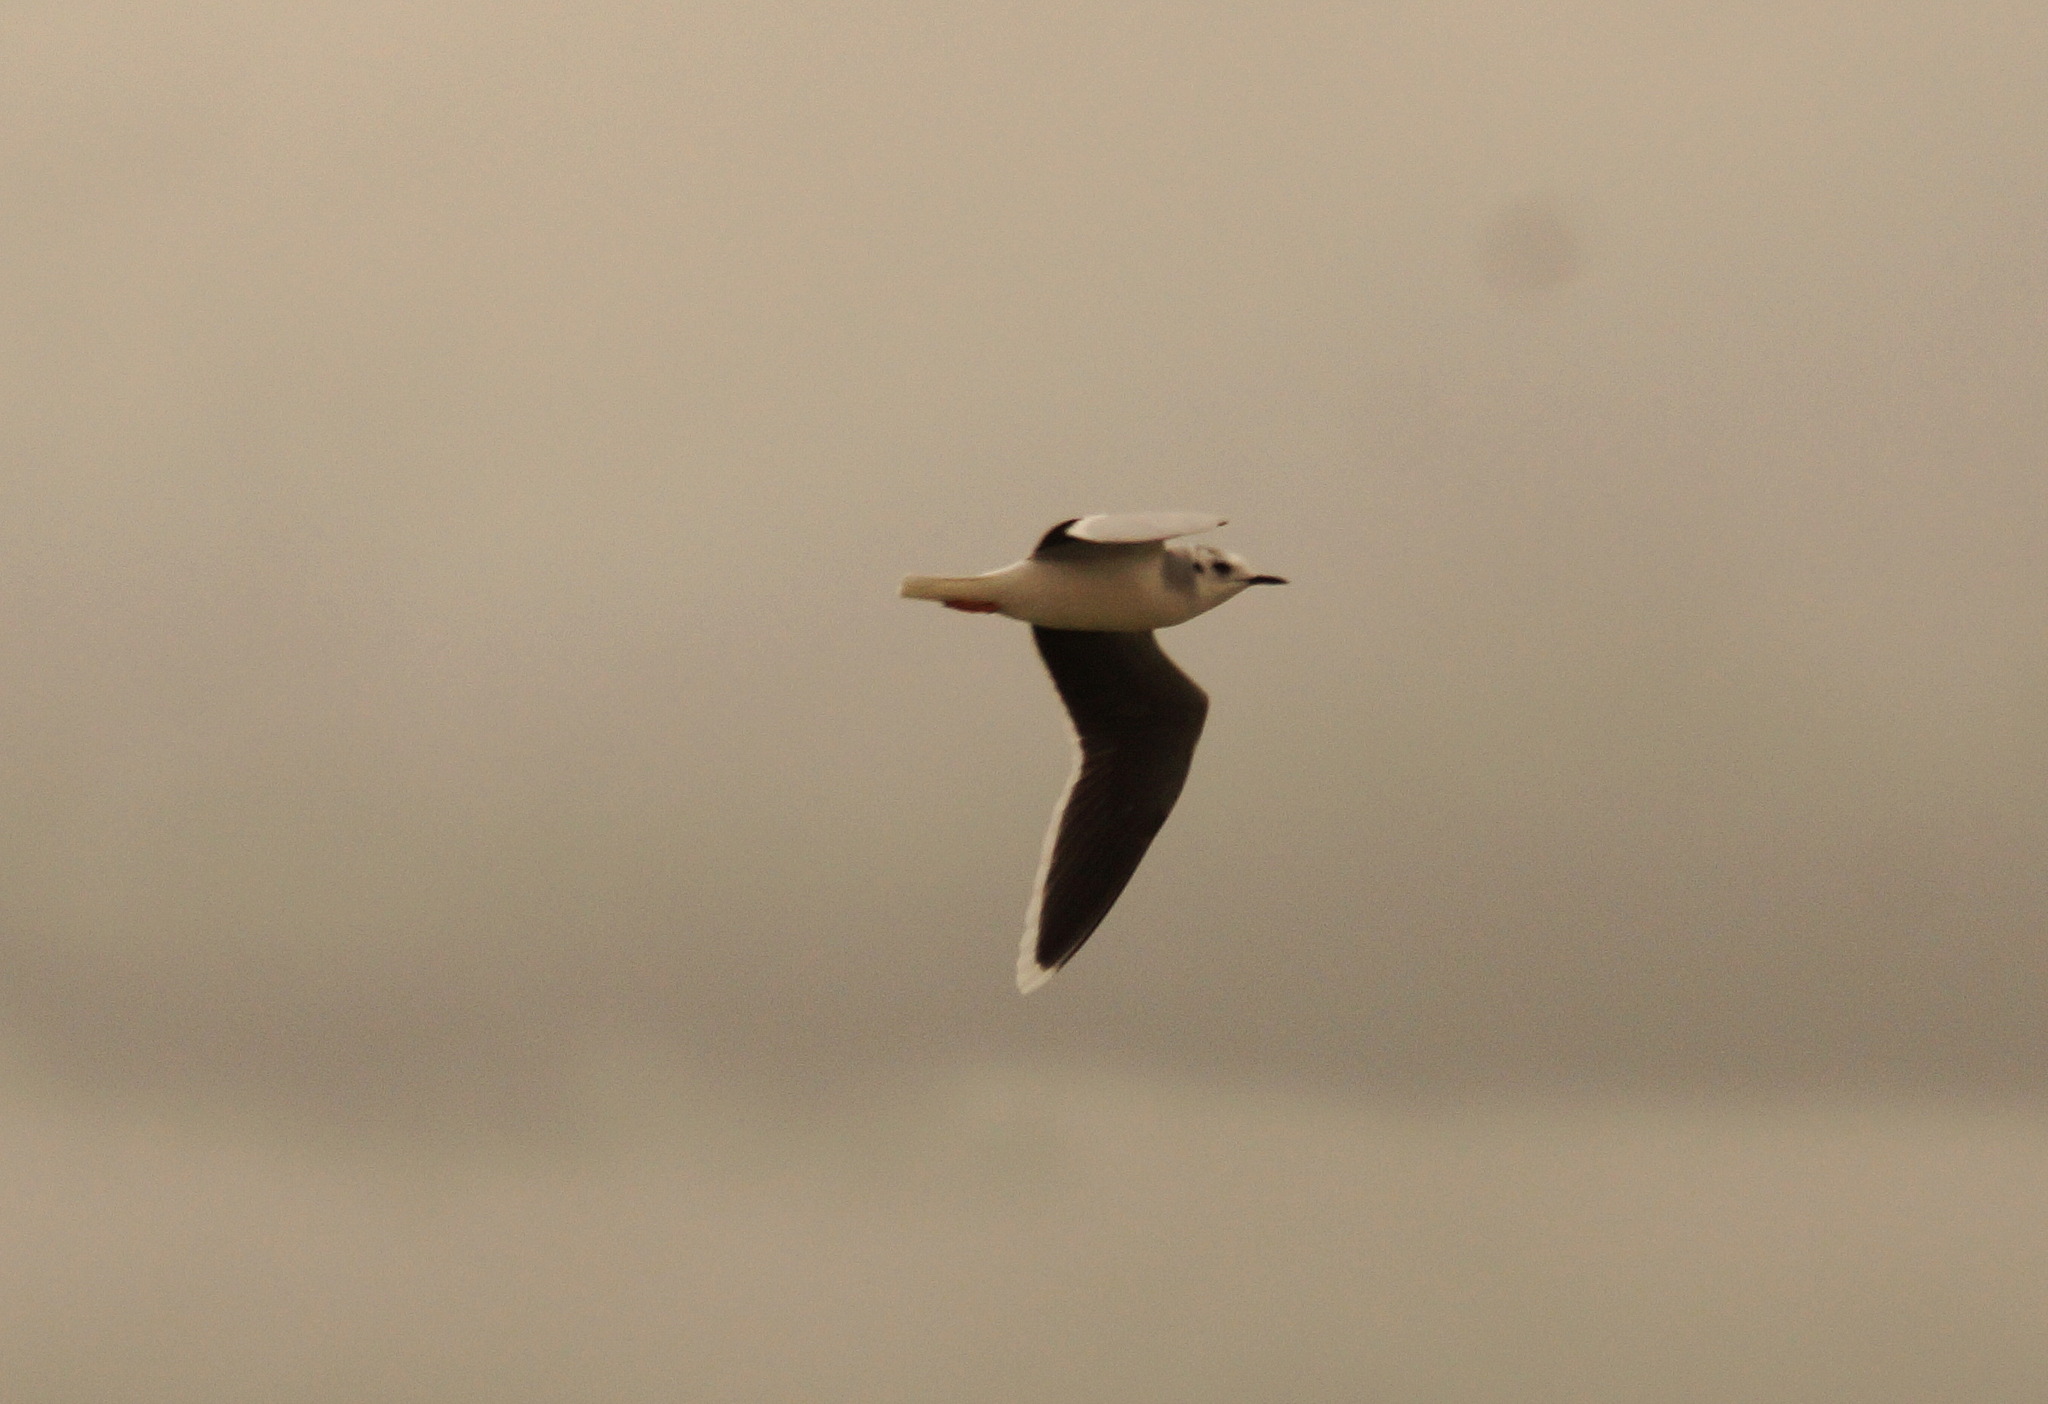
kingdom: Animalia
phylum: Chordata
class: Aves
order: Charadriiformes
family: Laridae
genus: Hydrocoloeus
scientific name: Hydrocoloeus minutus
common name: Little gull
